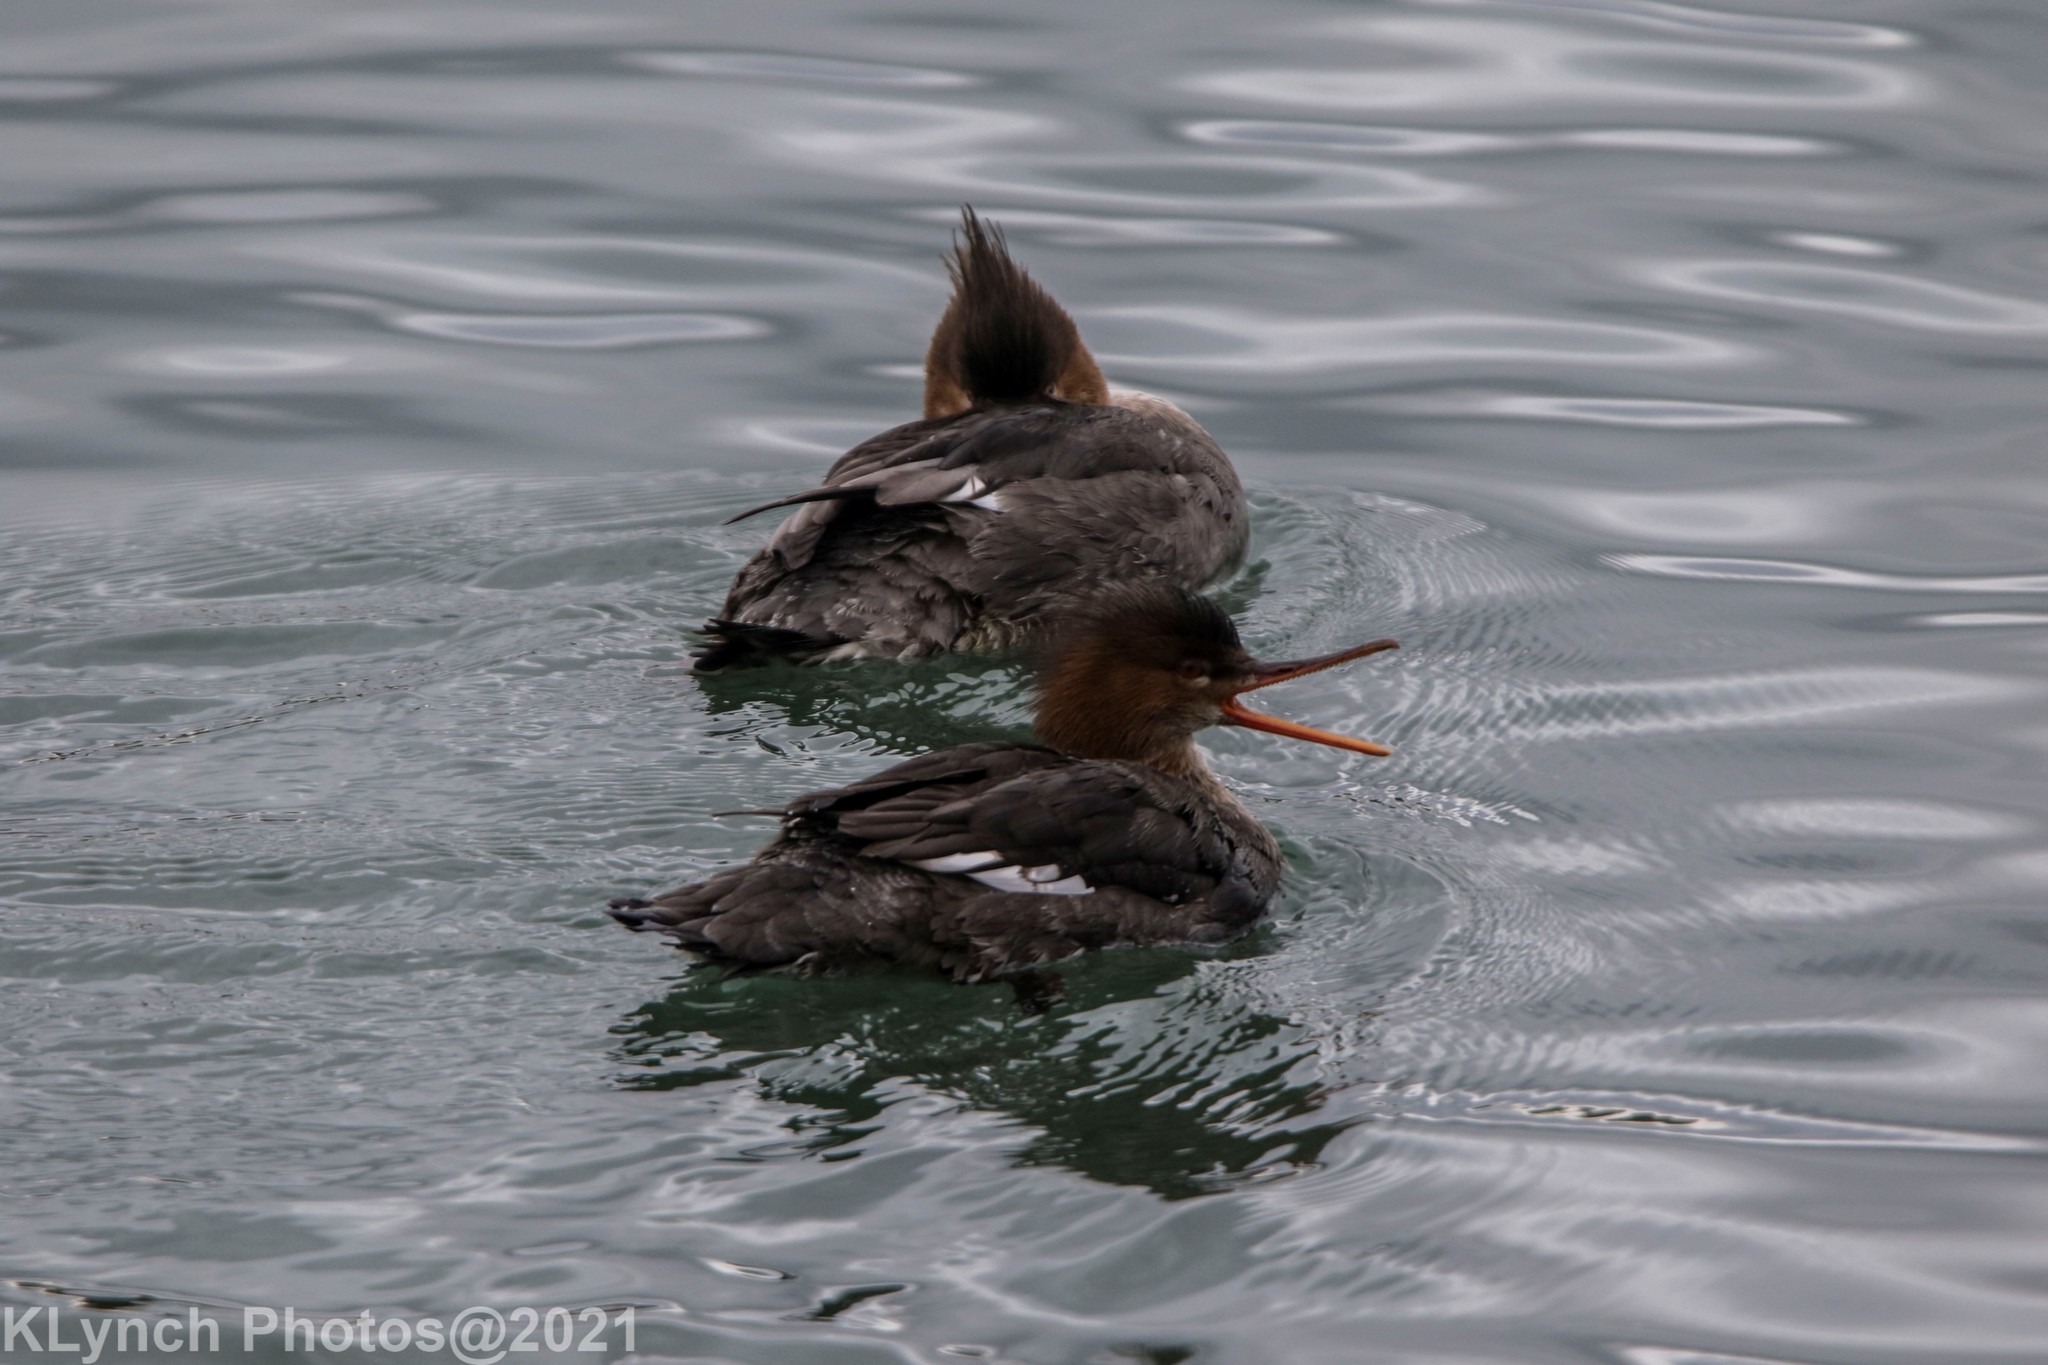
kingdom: Animalia
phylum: Chordata
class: Aves
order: Anseriformes
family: Anatidae
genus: Mergus
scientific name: Mergus serrator
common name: Red-breasted merganser
